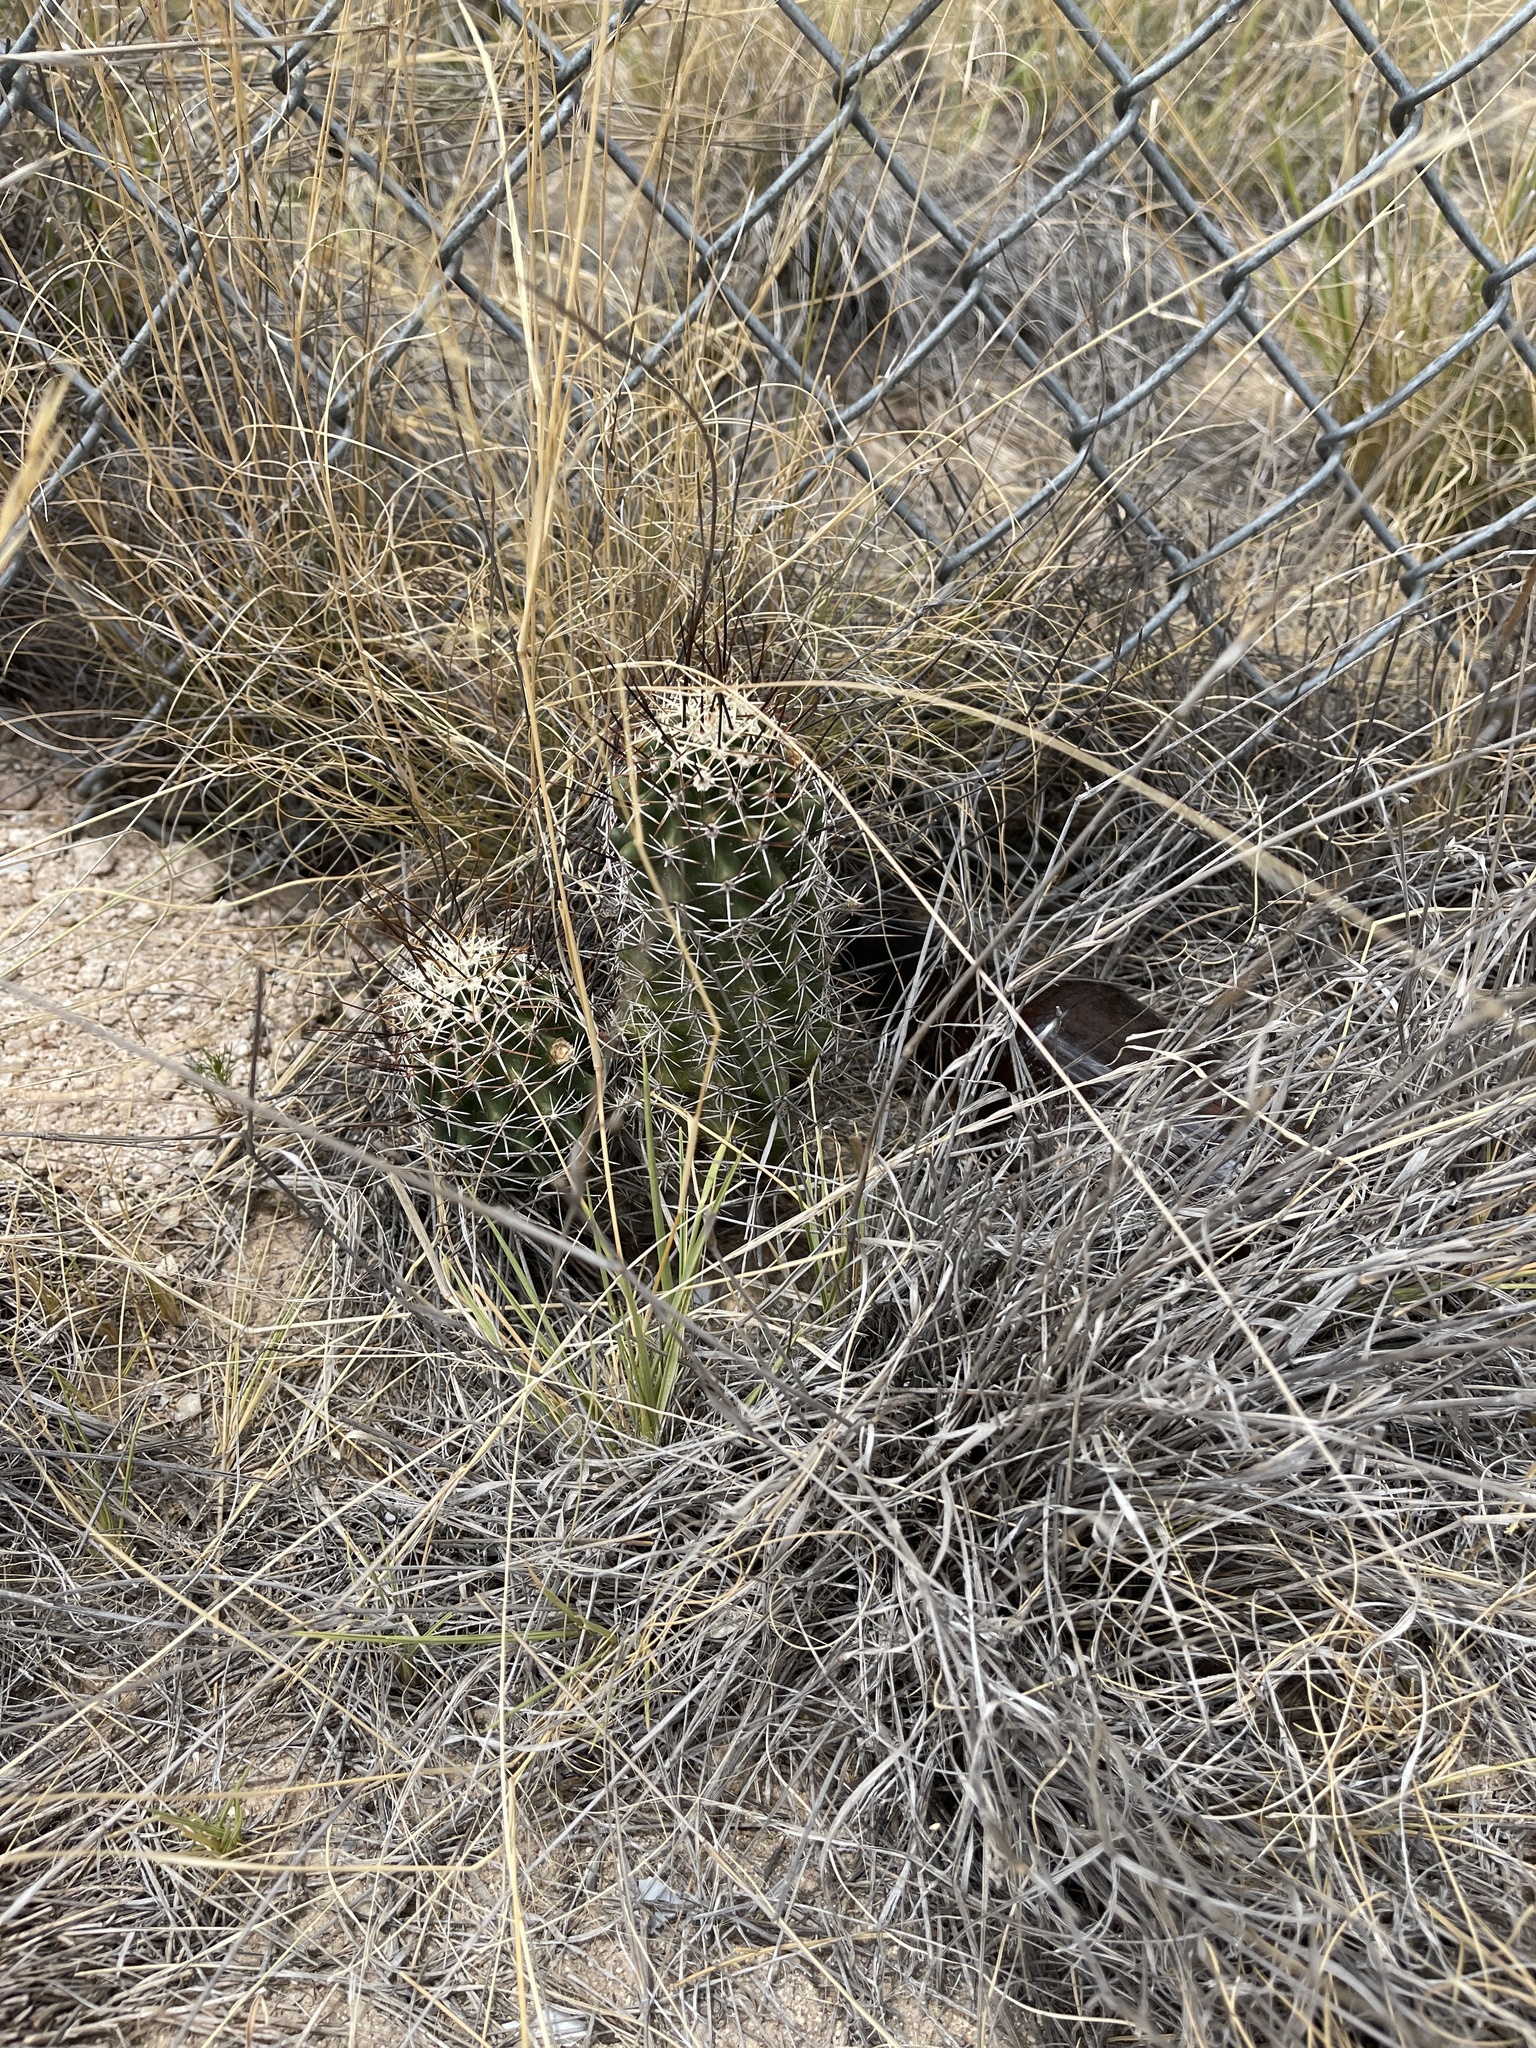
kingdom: Plantae
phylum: Tracheophyta
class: Magnoliopsida
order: Caryophyllales
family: Cactaceae
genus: Echinocereus
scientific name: Echinocereus fasciculatus
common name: Bundle hedgehog
